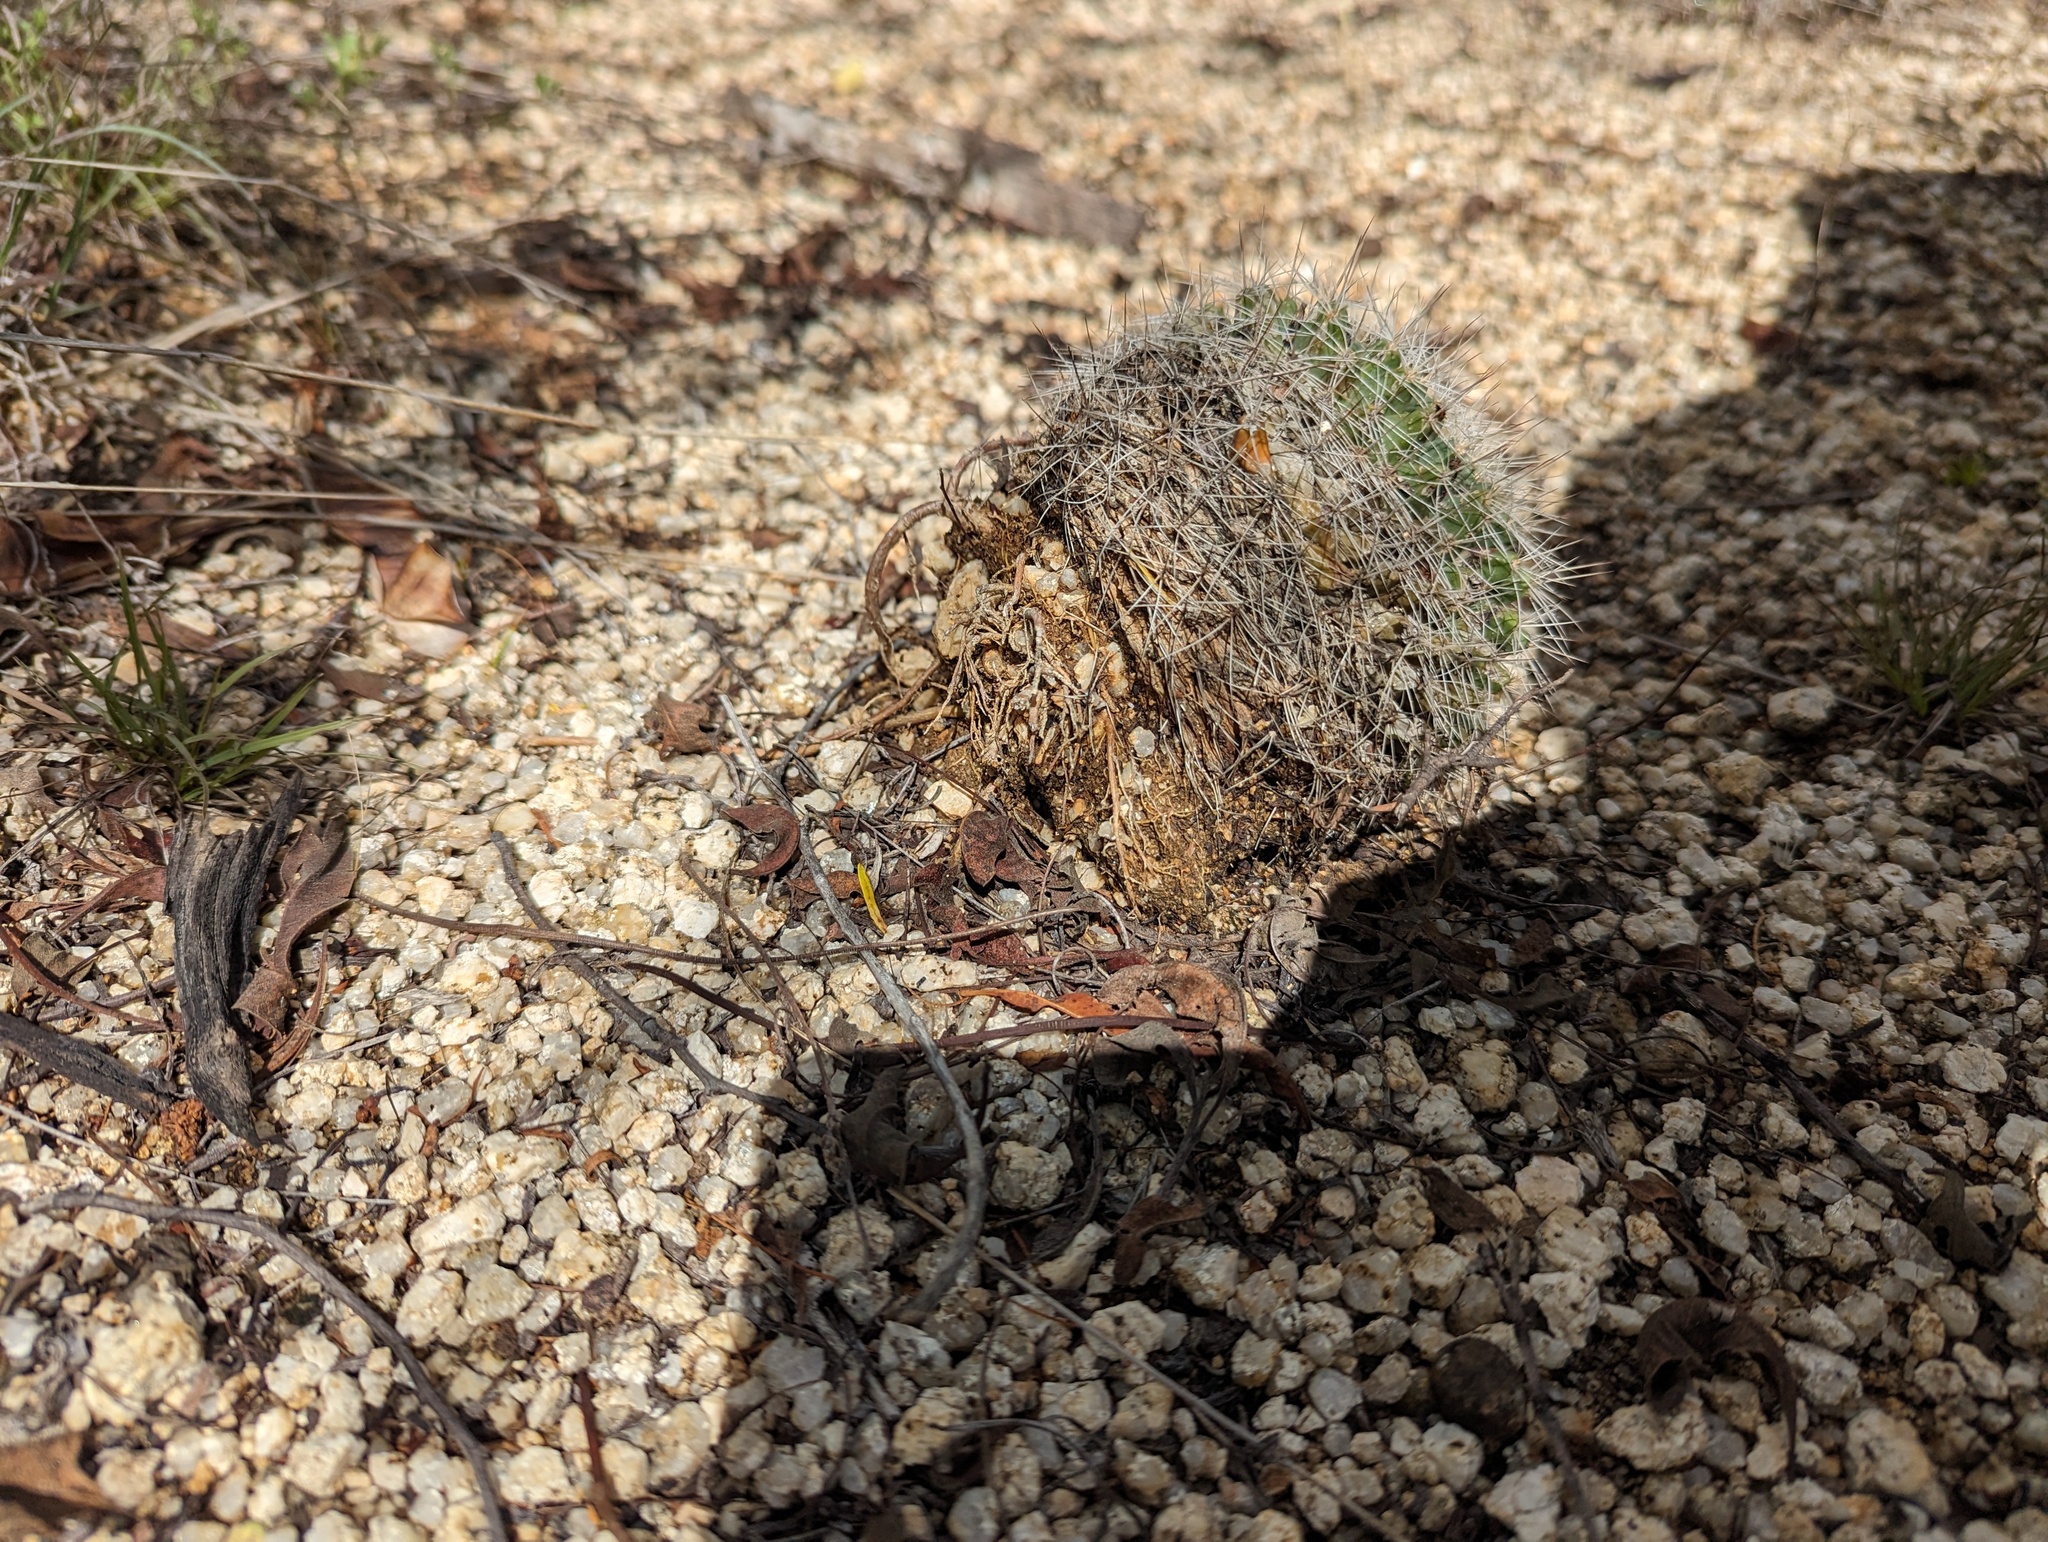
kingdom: Plantae
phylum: Tracheophyta
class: Magnoliopsida
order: Caryophyllales
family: Cactaceae
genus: Mammillaria
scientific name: Mammillaria petrophila
